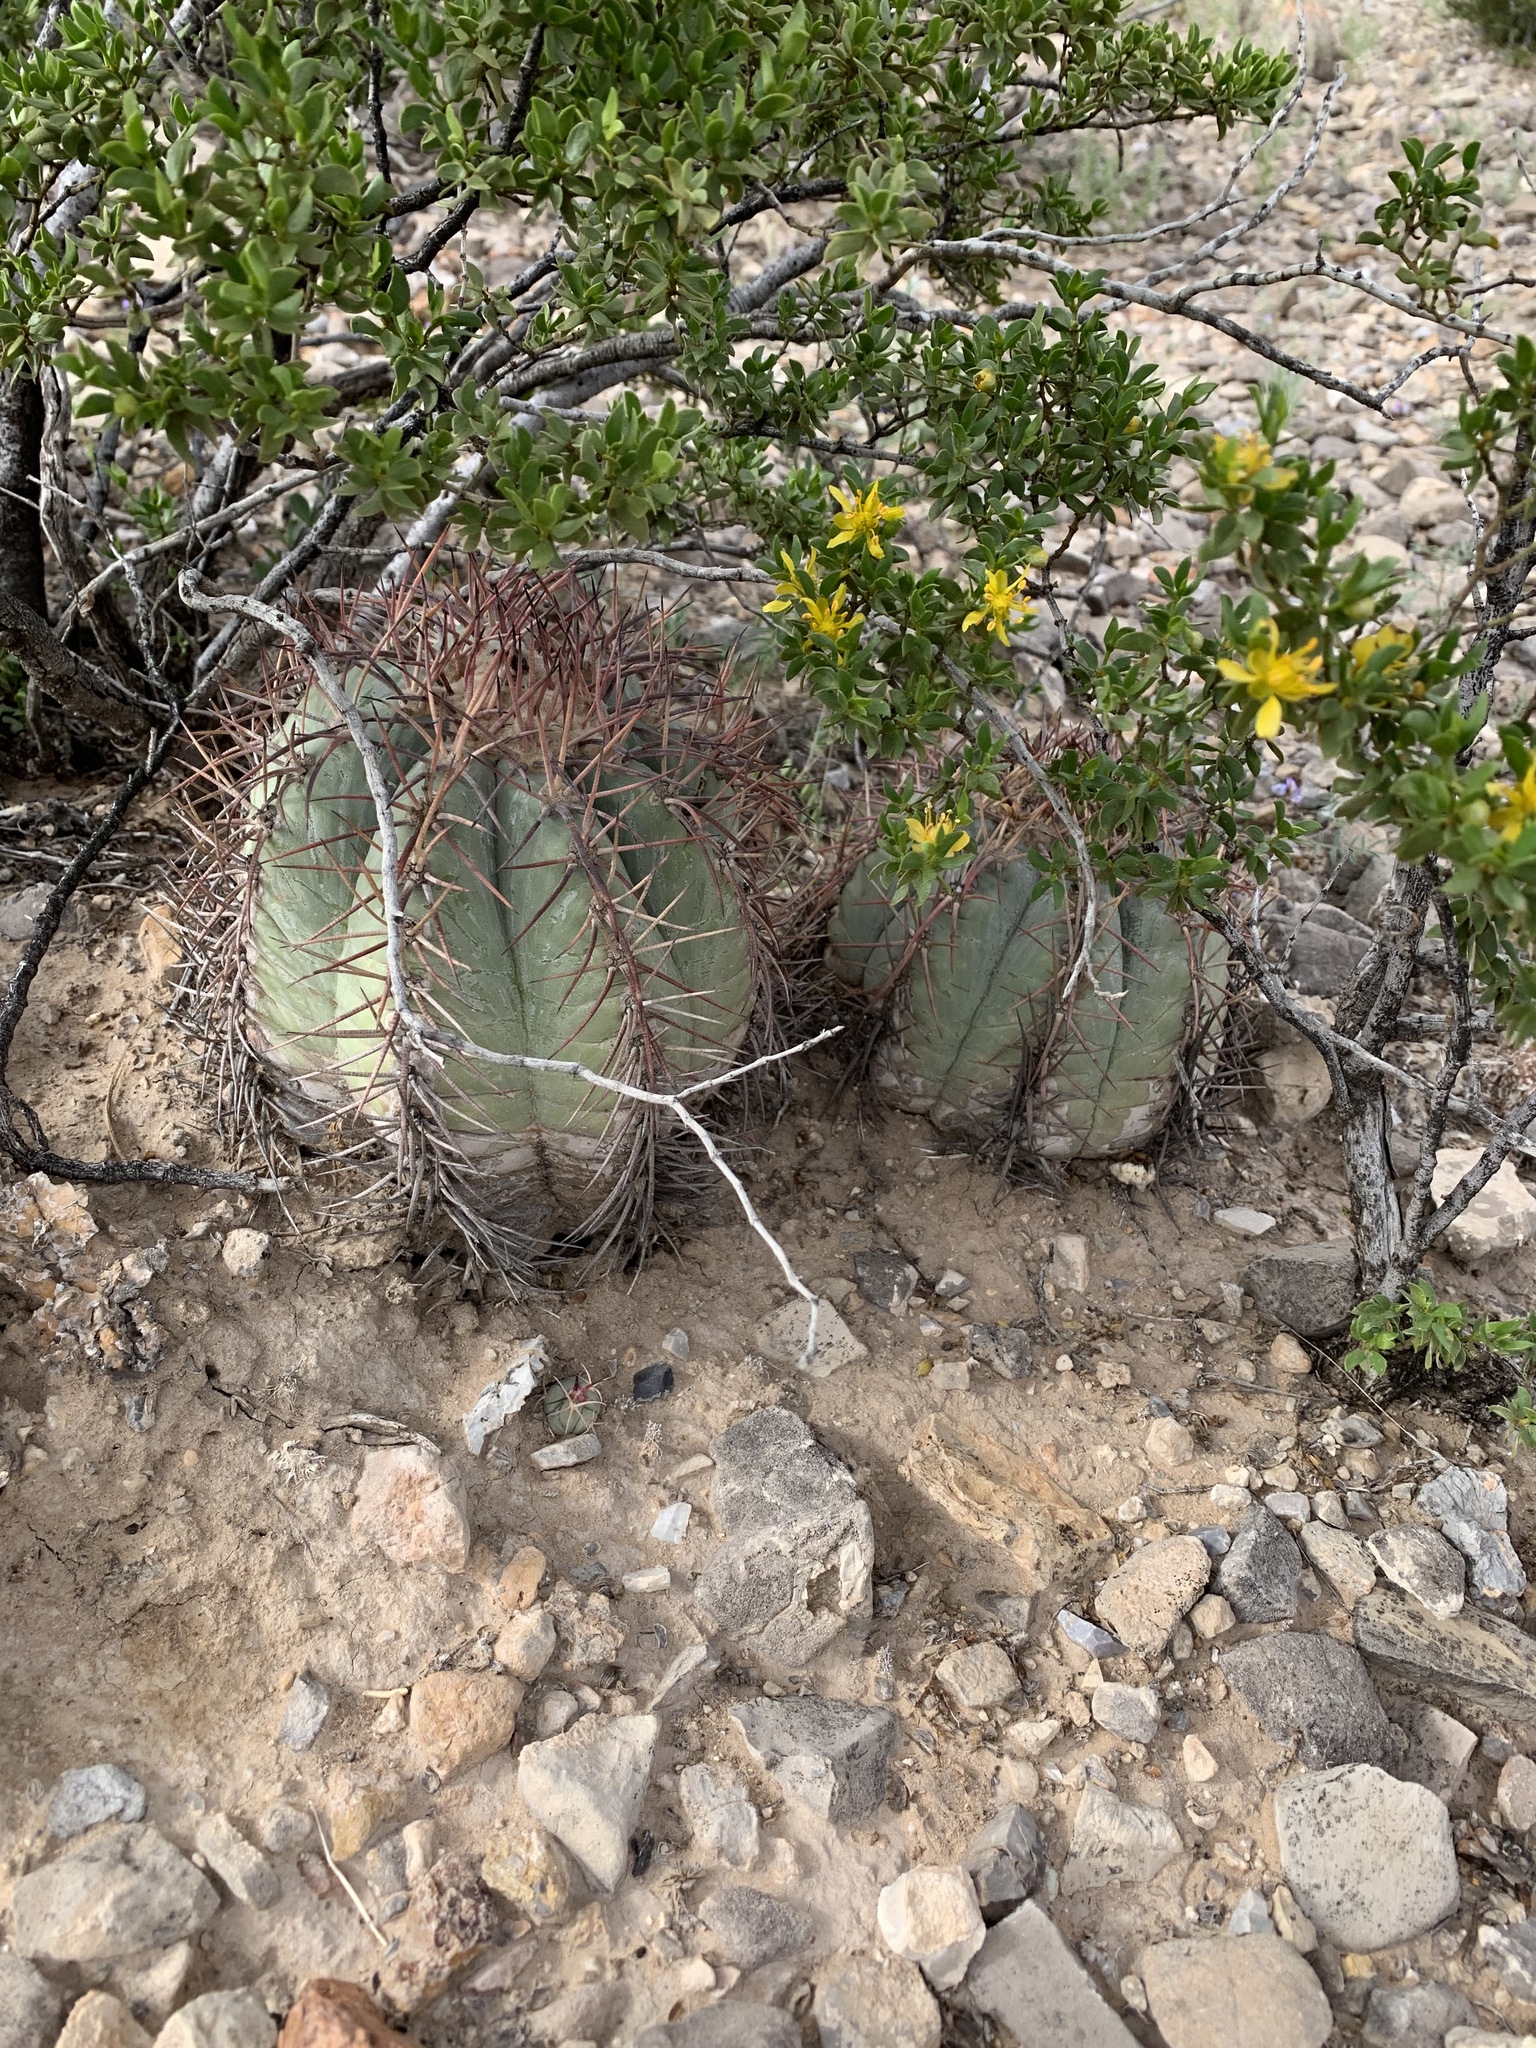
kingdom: Plantae
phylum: Tracheophyta
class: Magnoliopsida
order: Caryophyllales
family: Cactaceae
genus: Echinocactus
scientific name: Echinocactus horizonthalonius
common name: Devilshead
